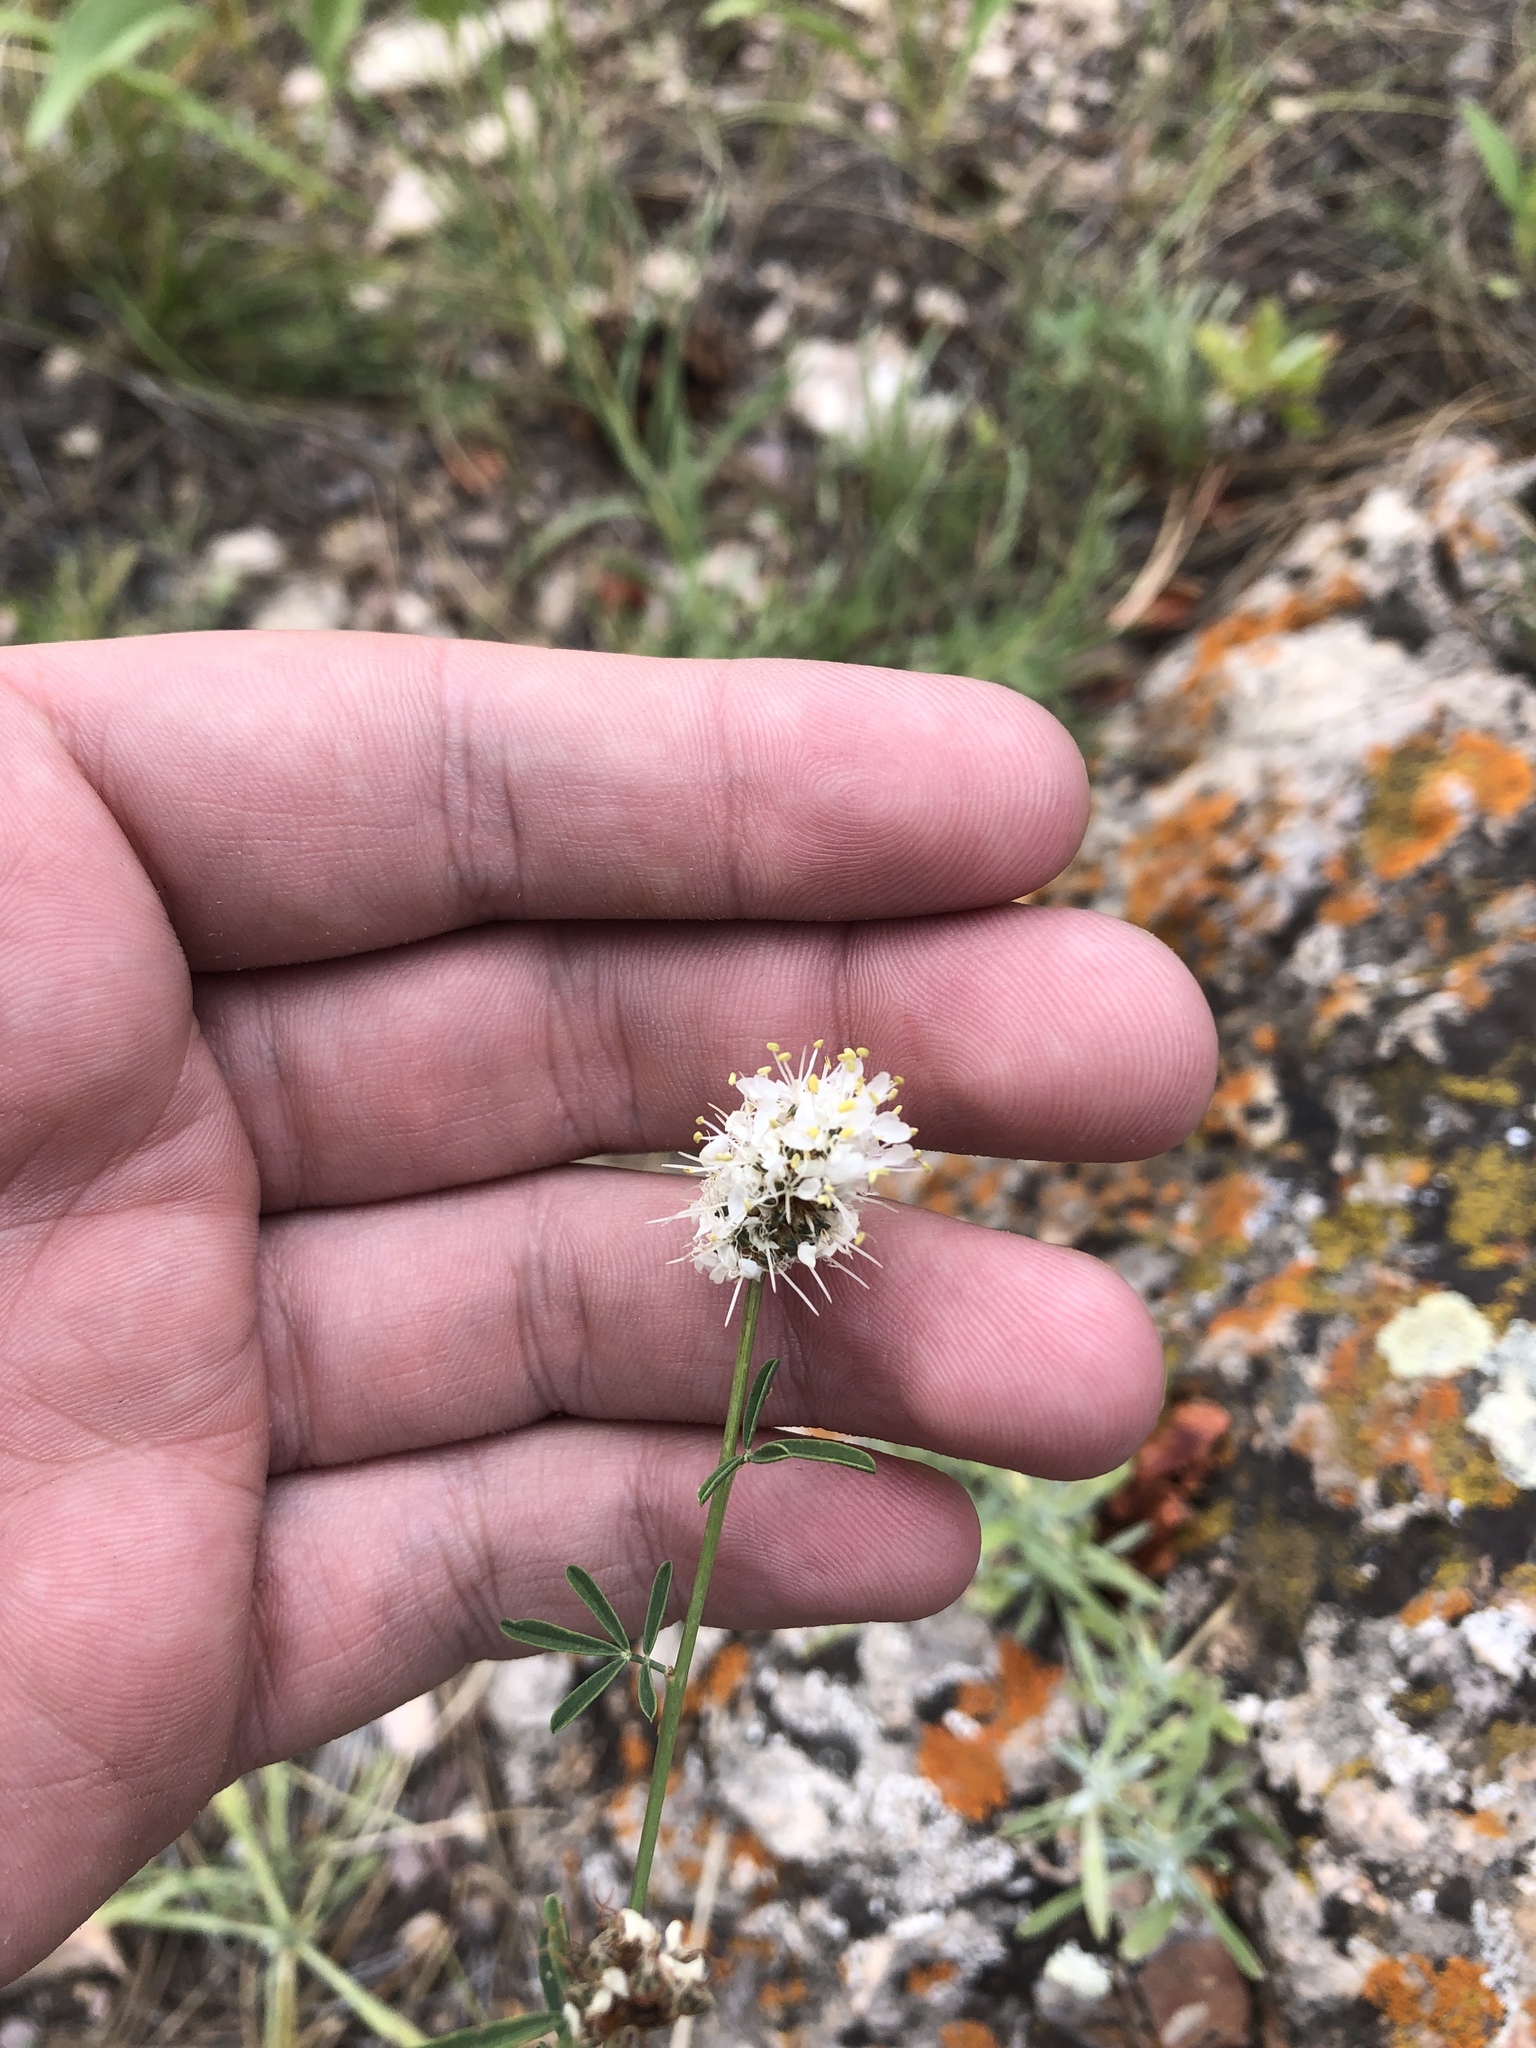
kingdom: Plantae
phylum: Tracheophyta
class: Magnoliopsida
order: Fabales
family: Fabaceae
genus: Dalea
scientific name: Dalea candida
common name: White prairie-clover
